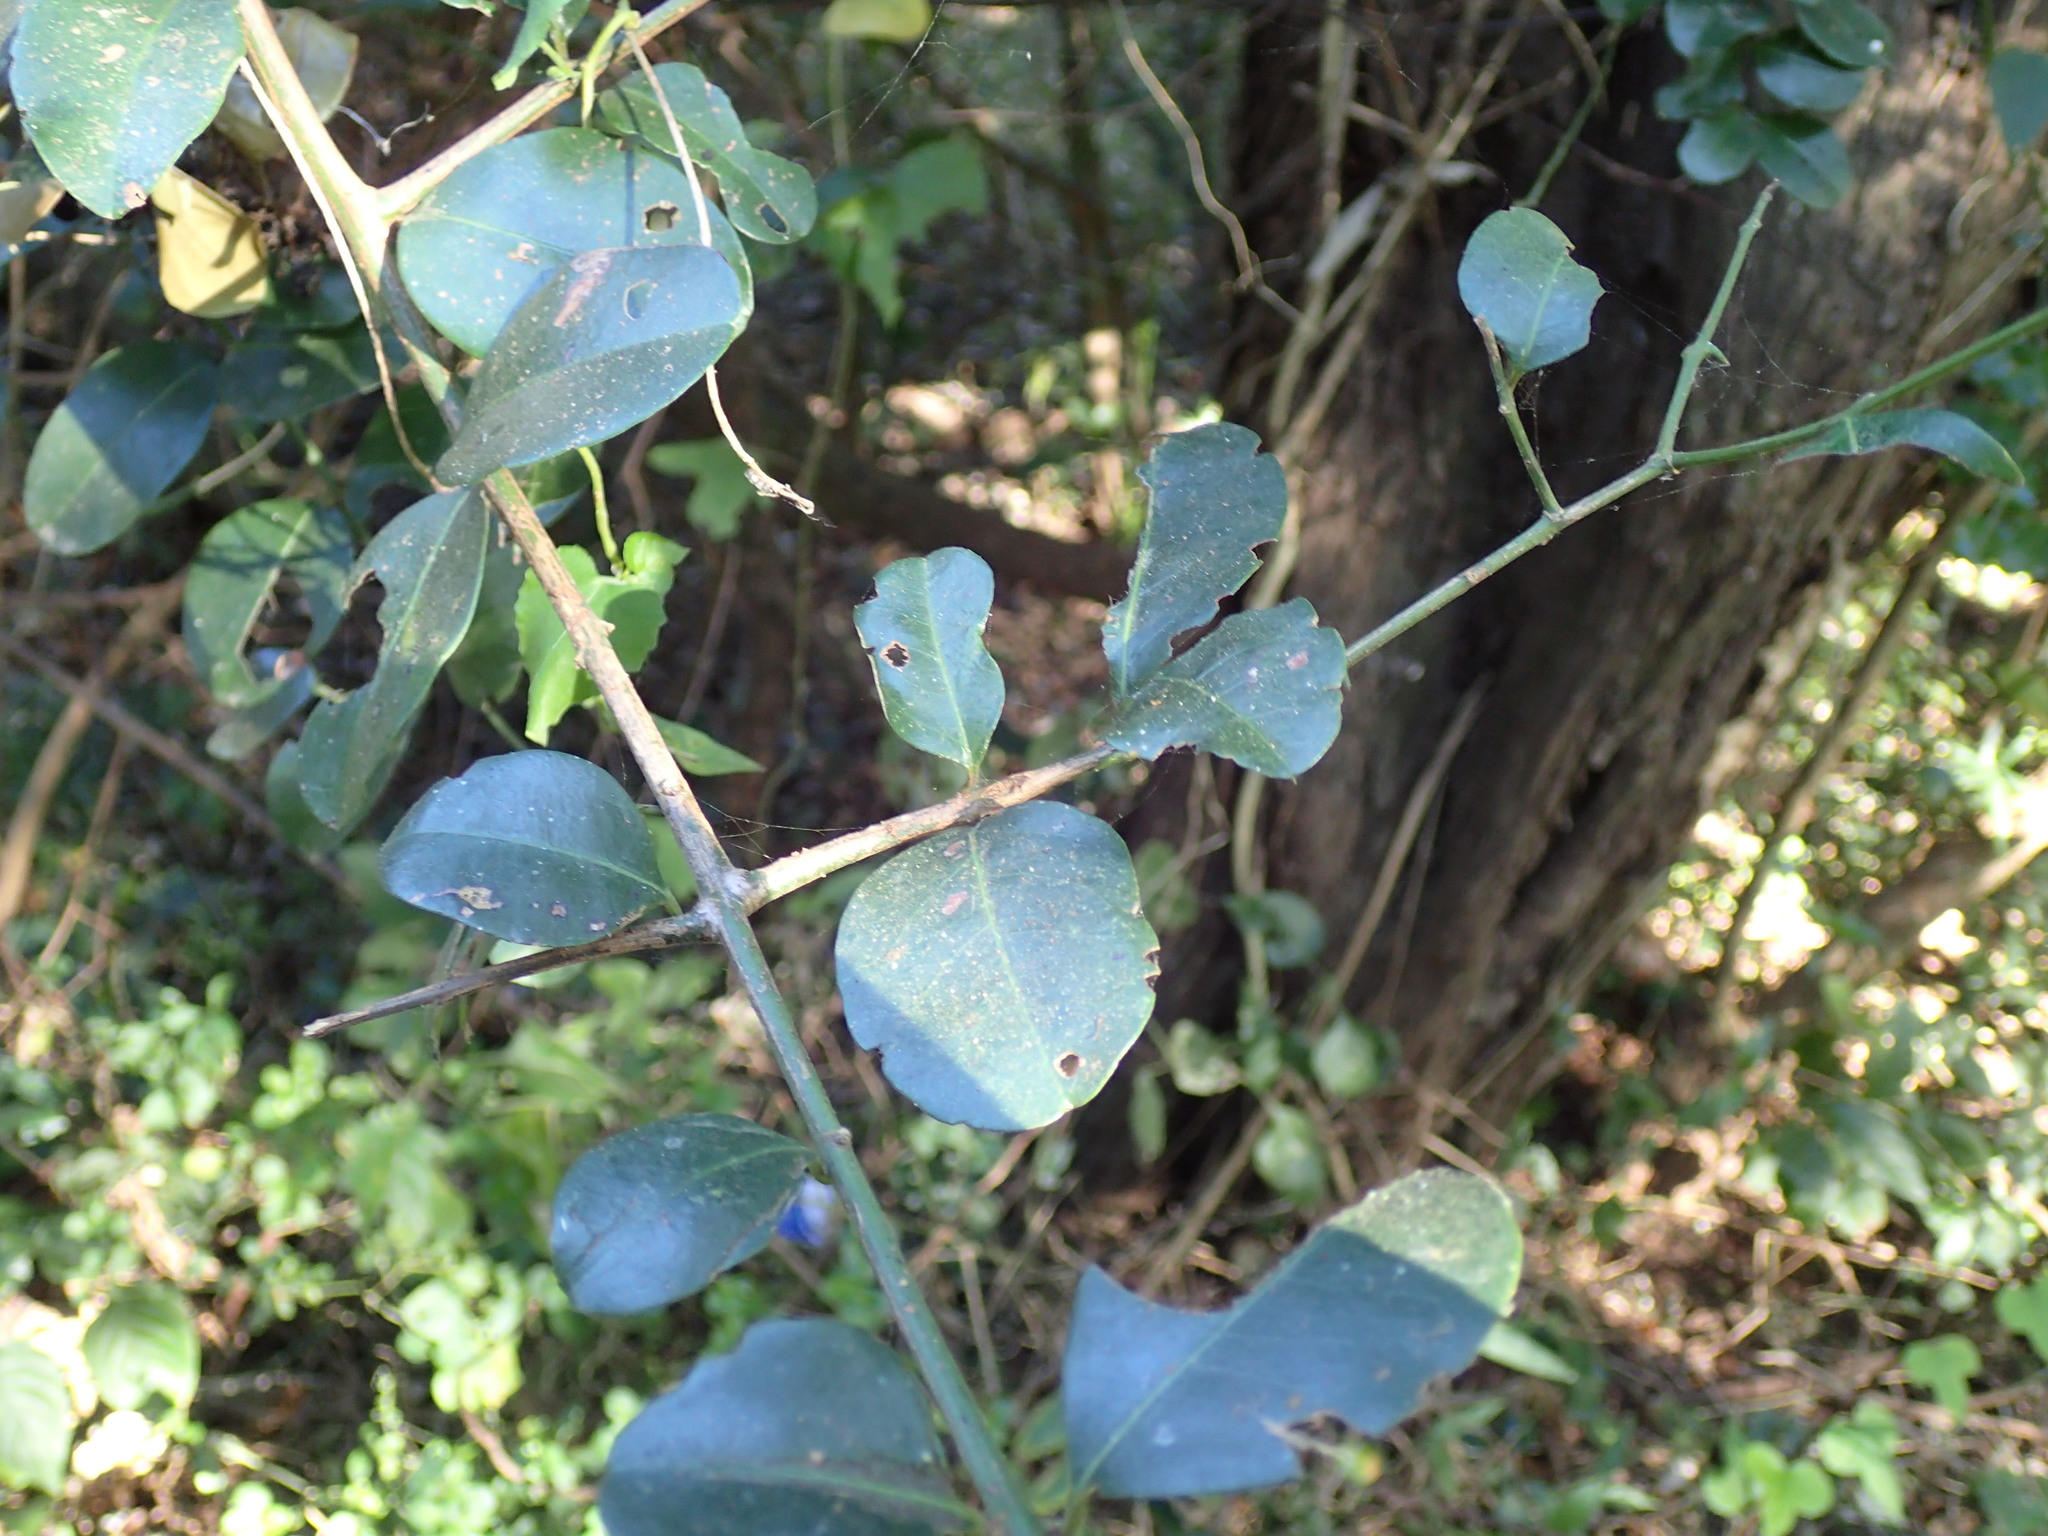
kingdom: Plantae
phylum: Tracheophyta
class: Magnoliopsida
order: Rosales
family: Rhamnaceae
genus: Scutia
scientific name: Scutia myrtina
